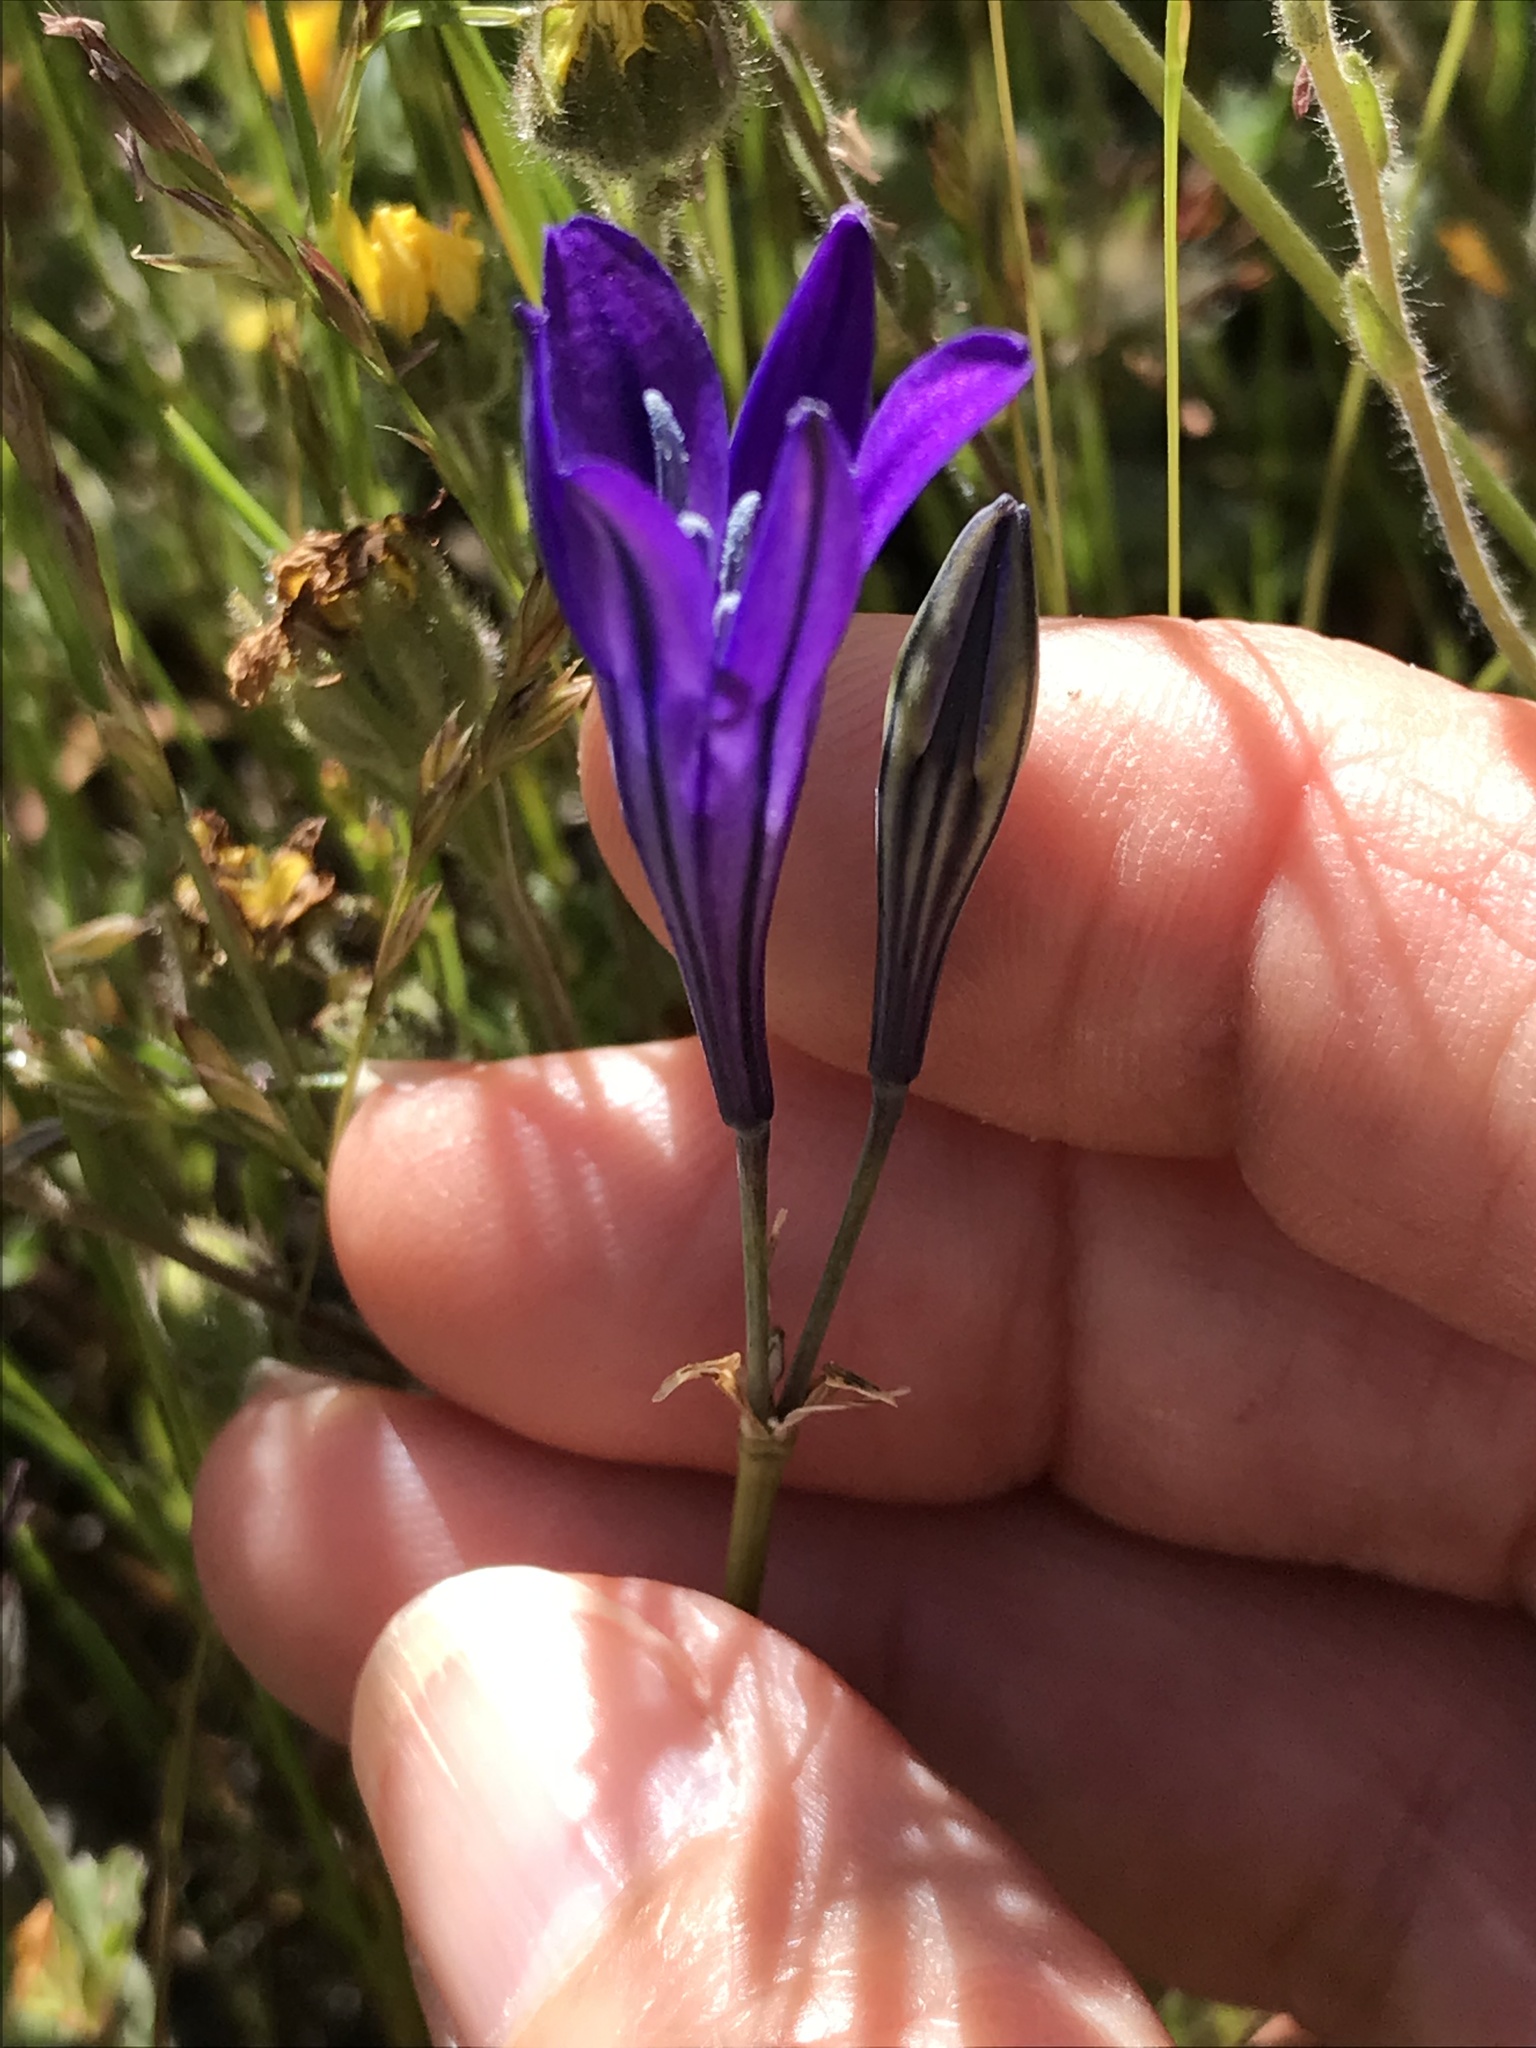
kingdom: Plantae
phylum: Tracheophyta
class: Liliopsida
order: Asparagales
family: Asparagaceae
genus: Triteleia
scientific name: Triteleia laxa
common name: Triplet-lily
